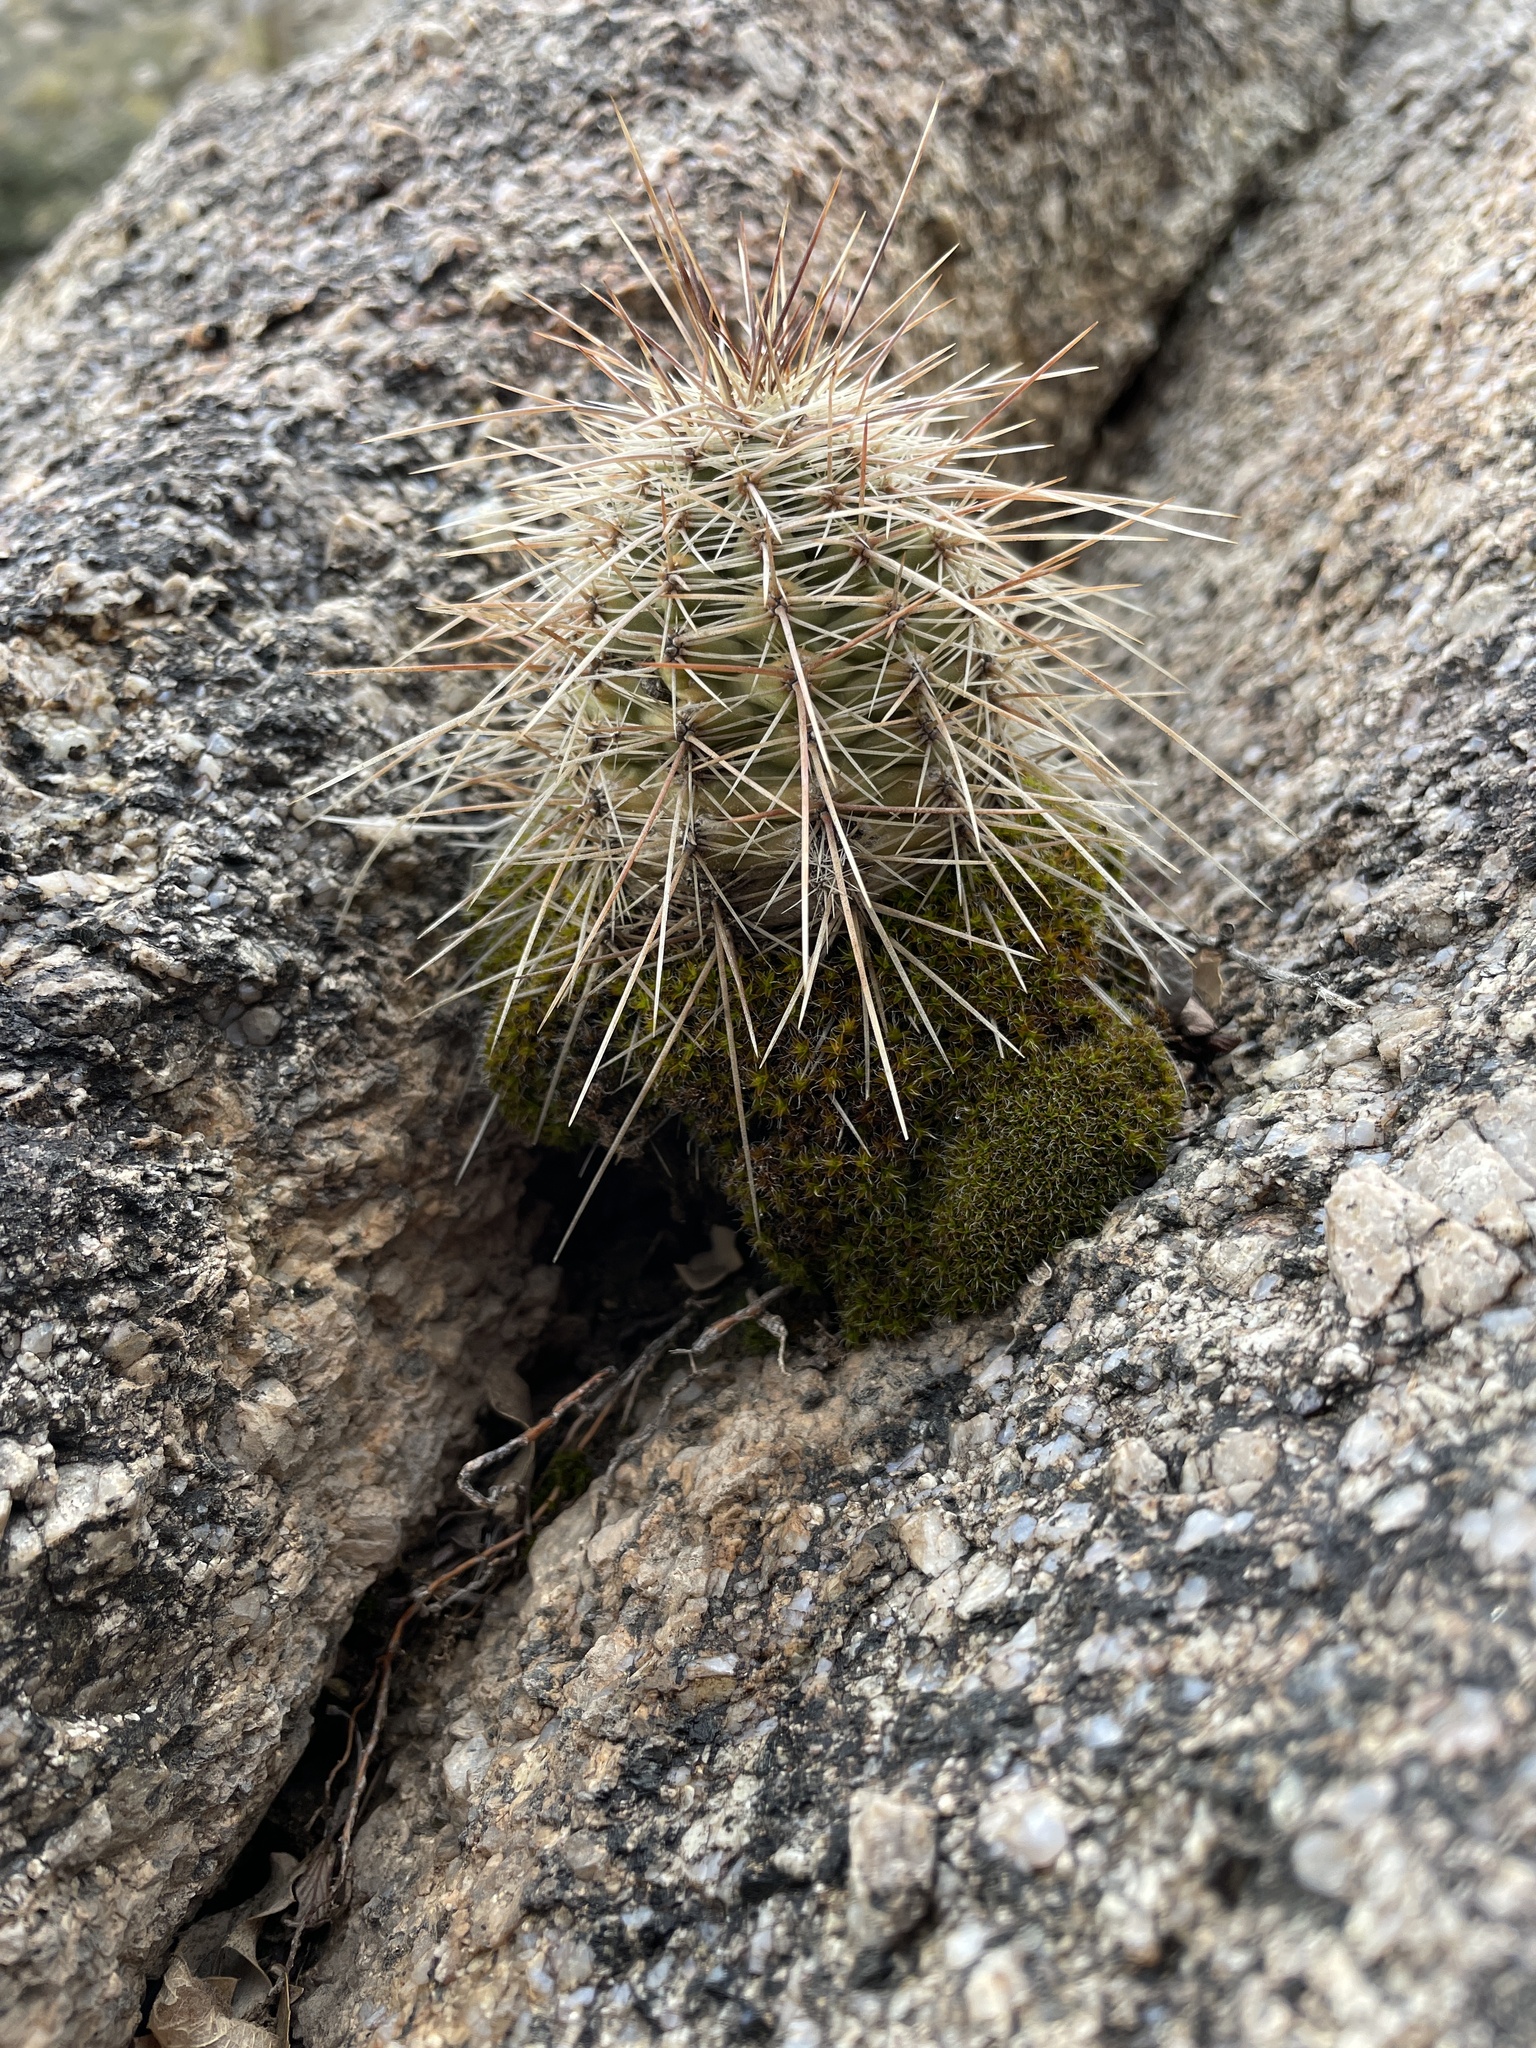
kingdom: Plantae
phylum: Tracheophyta
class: Magnoliopsida
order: Caryophyllales
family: Cactaceae
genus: Echinocereus
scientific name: Echinocereus coccineus
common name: Scarlet hedgehog cactus
